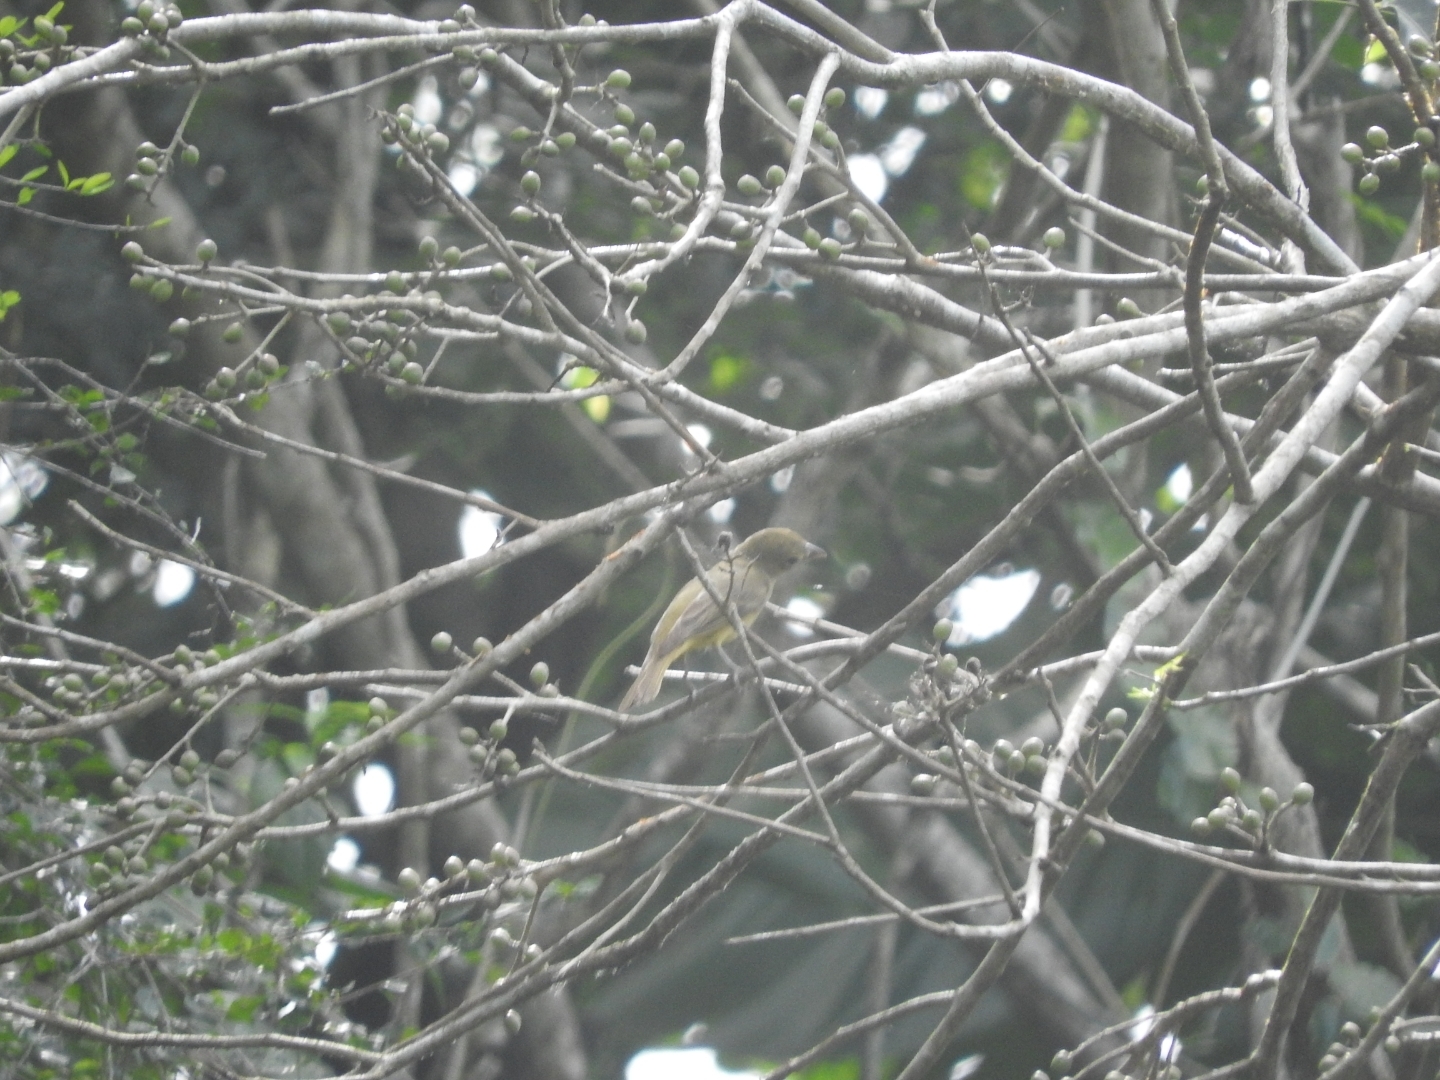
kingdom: Animalia
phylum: Chordata
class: Aves
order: Passeriformes
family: Fringillidae
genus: Euphonia
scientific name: Euphonia hirundinacea
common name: Yellow-throated euphonia
